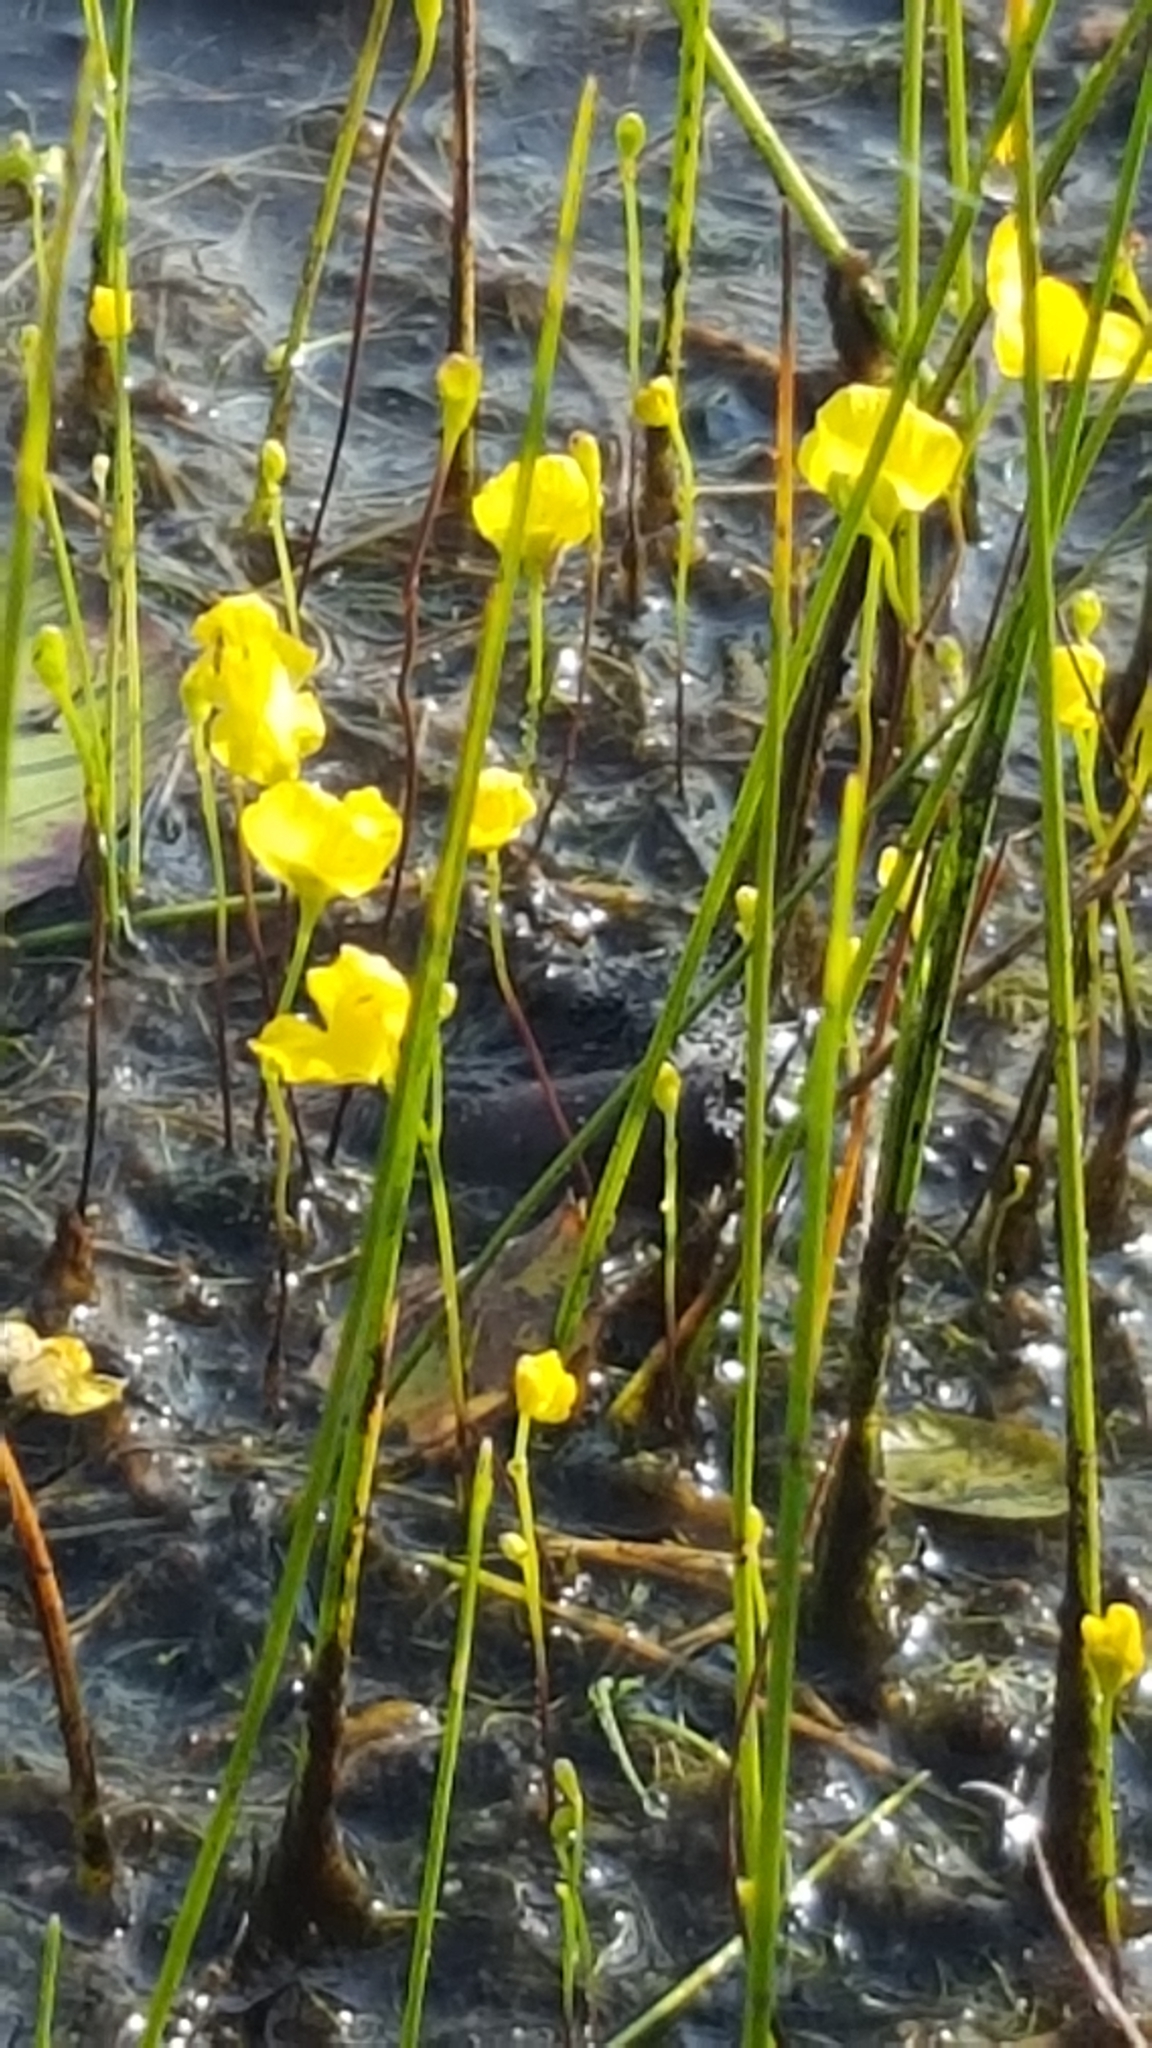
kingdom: Plantae
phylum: Tracheophyta
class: Magnoliopsida
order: Lamiales
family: Lentibulariaceae
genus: Utricularia
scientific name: Utricularia gibba
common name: Humped bladderwort
